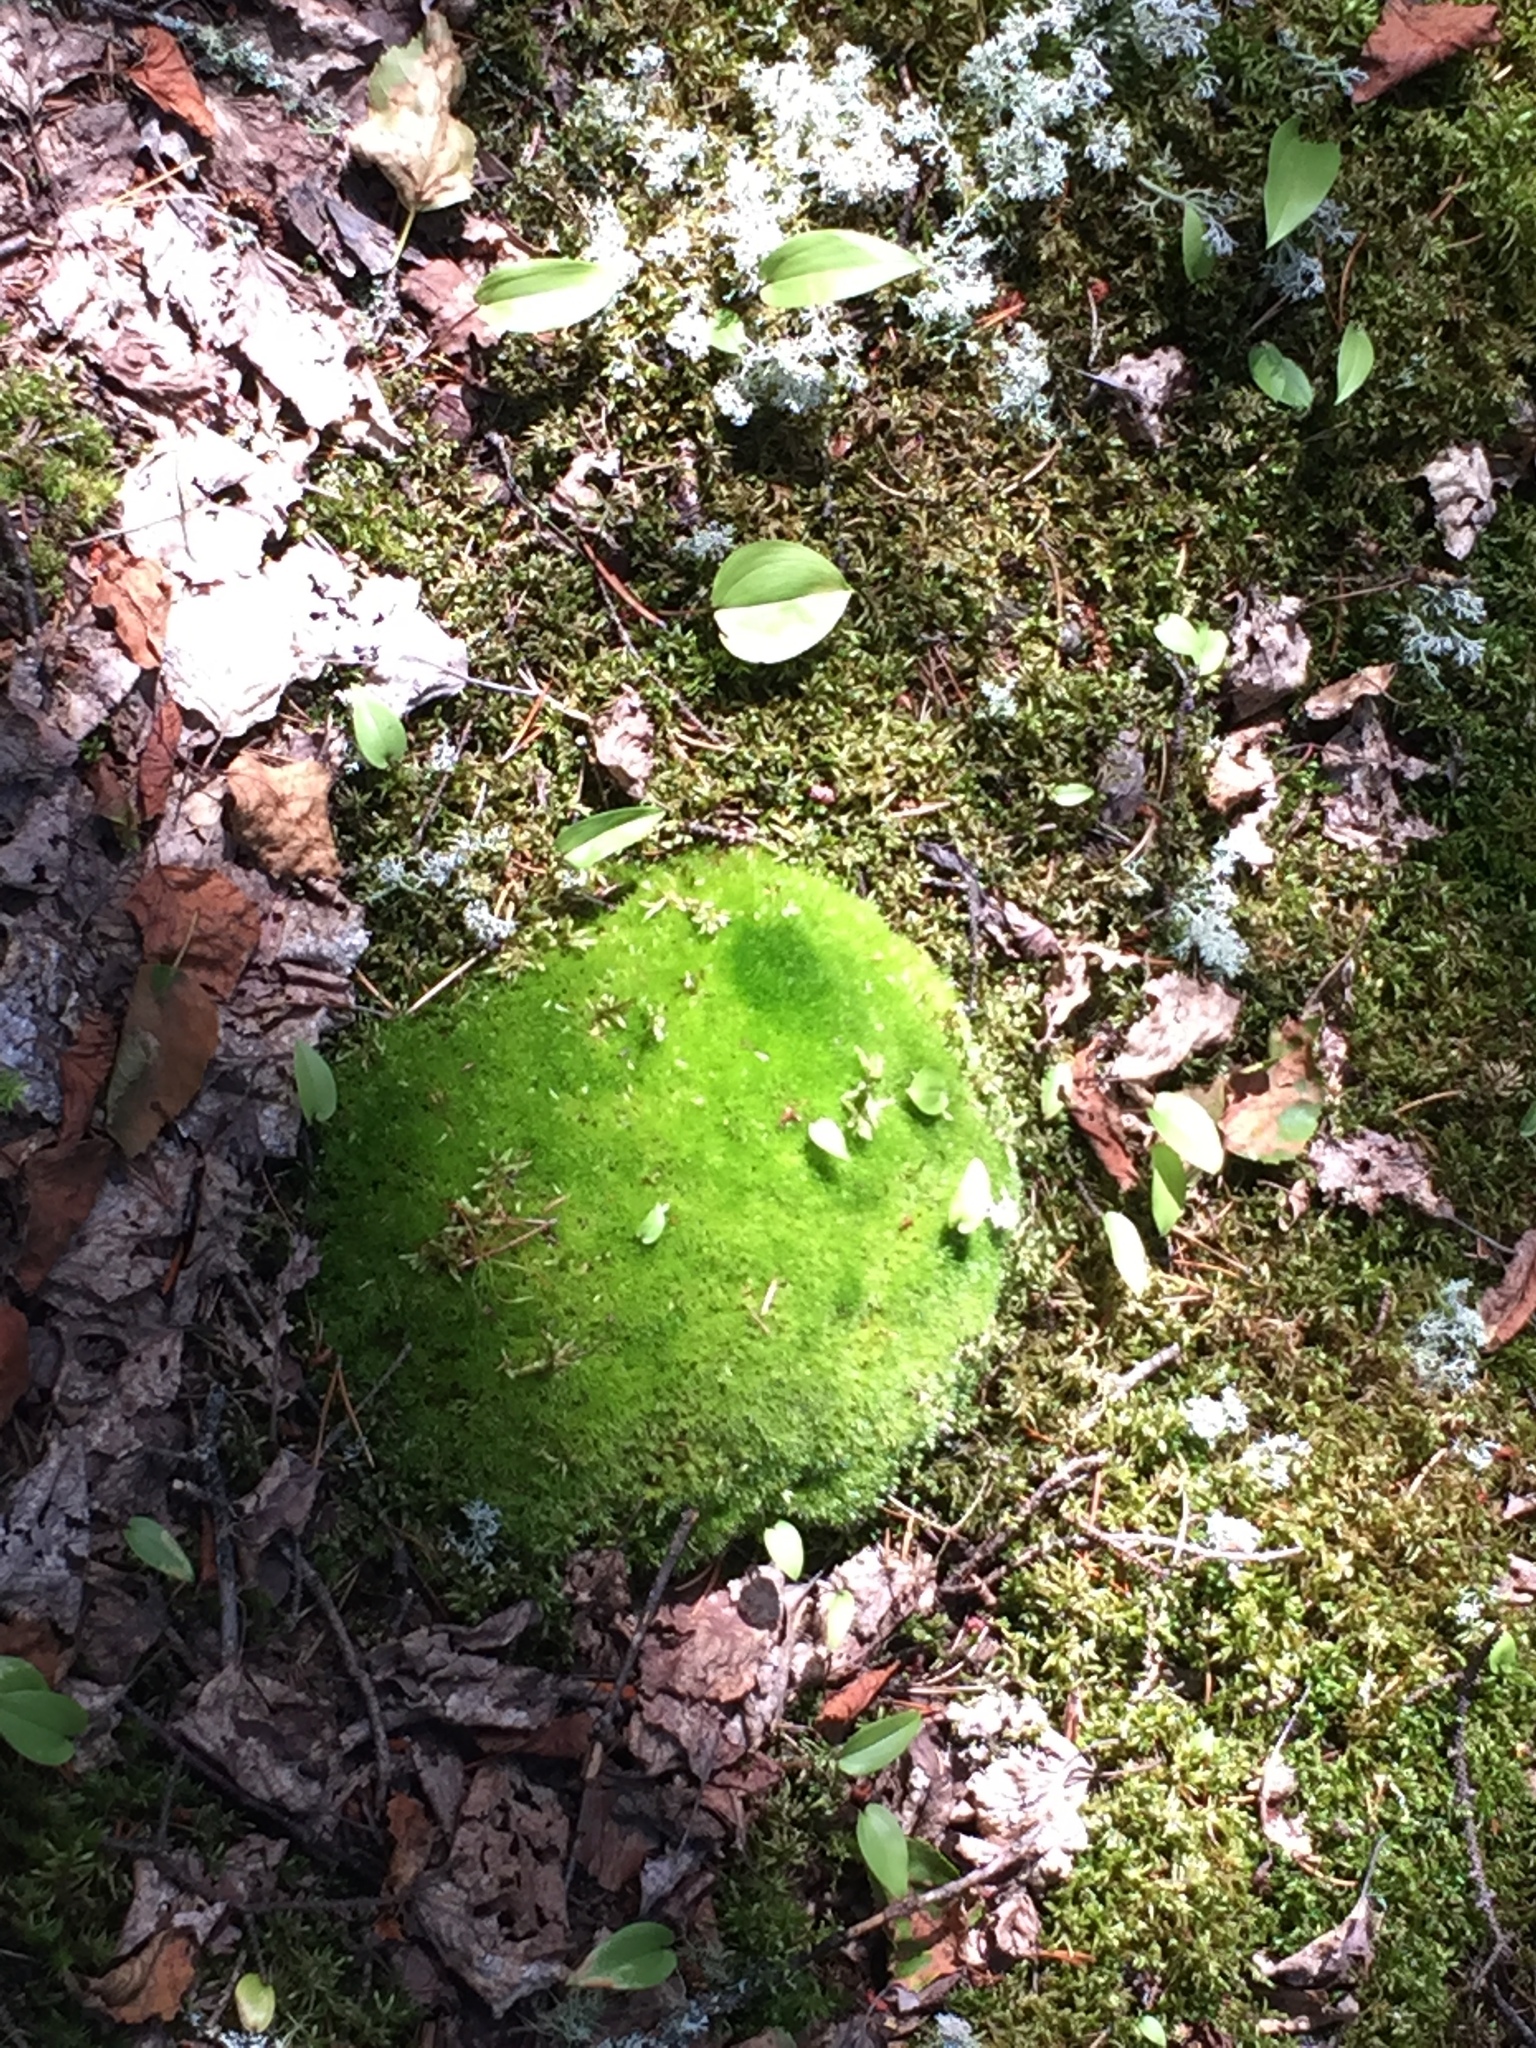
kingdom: Plantae
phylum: Bryophyta
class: Bryopsida
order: Dicranales
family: Leucobryaceae
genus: Leucobryum
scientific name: Leucobryum glaucum
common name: Large white-moss
